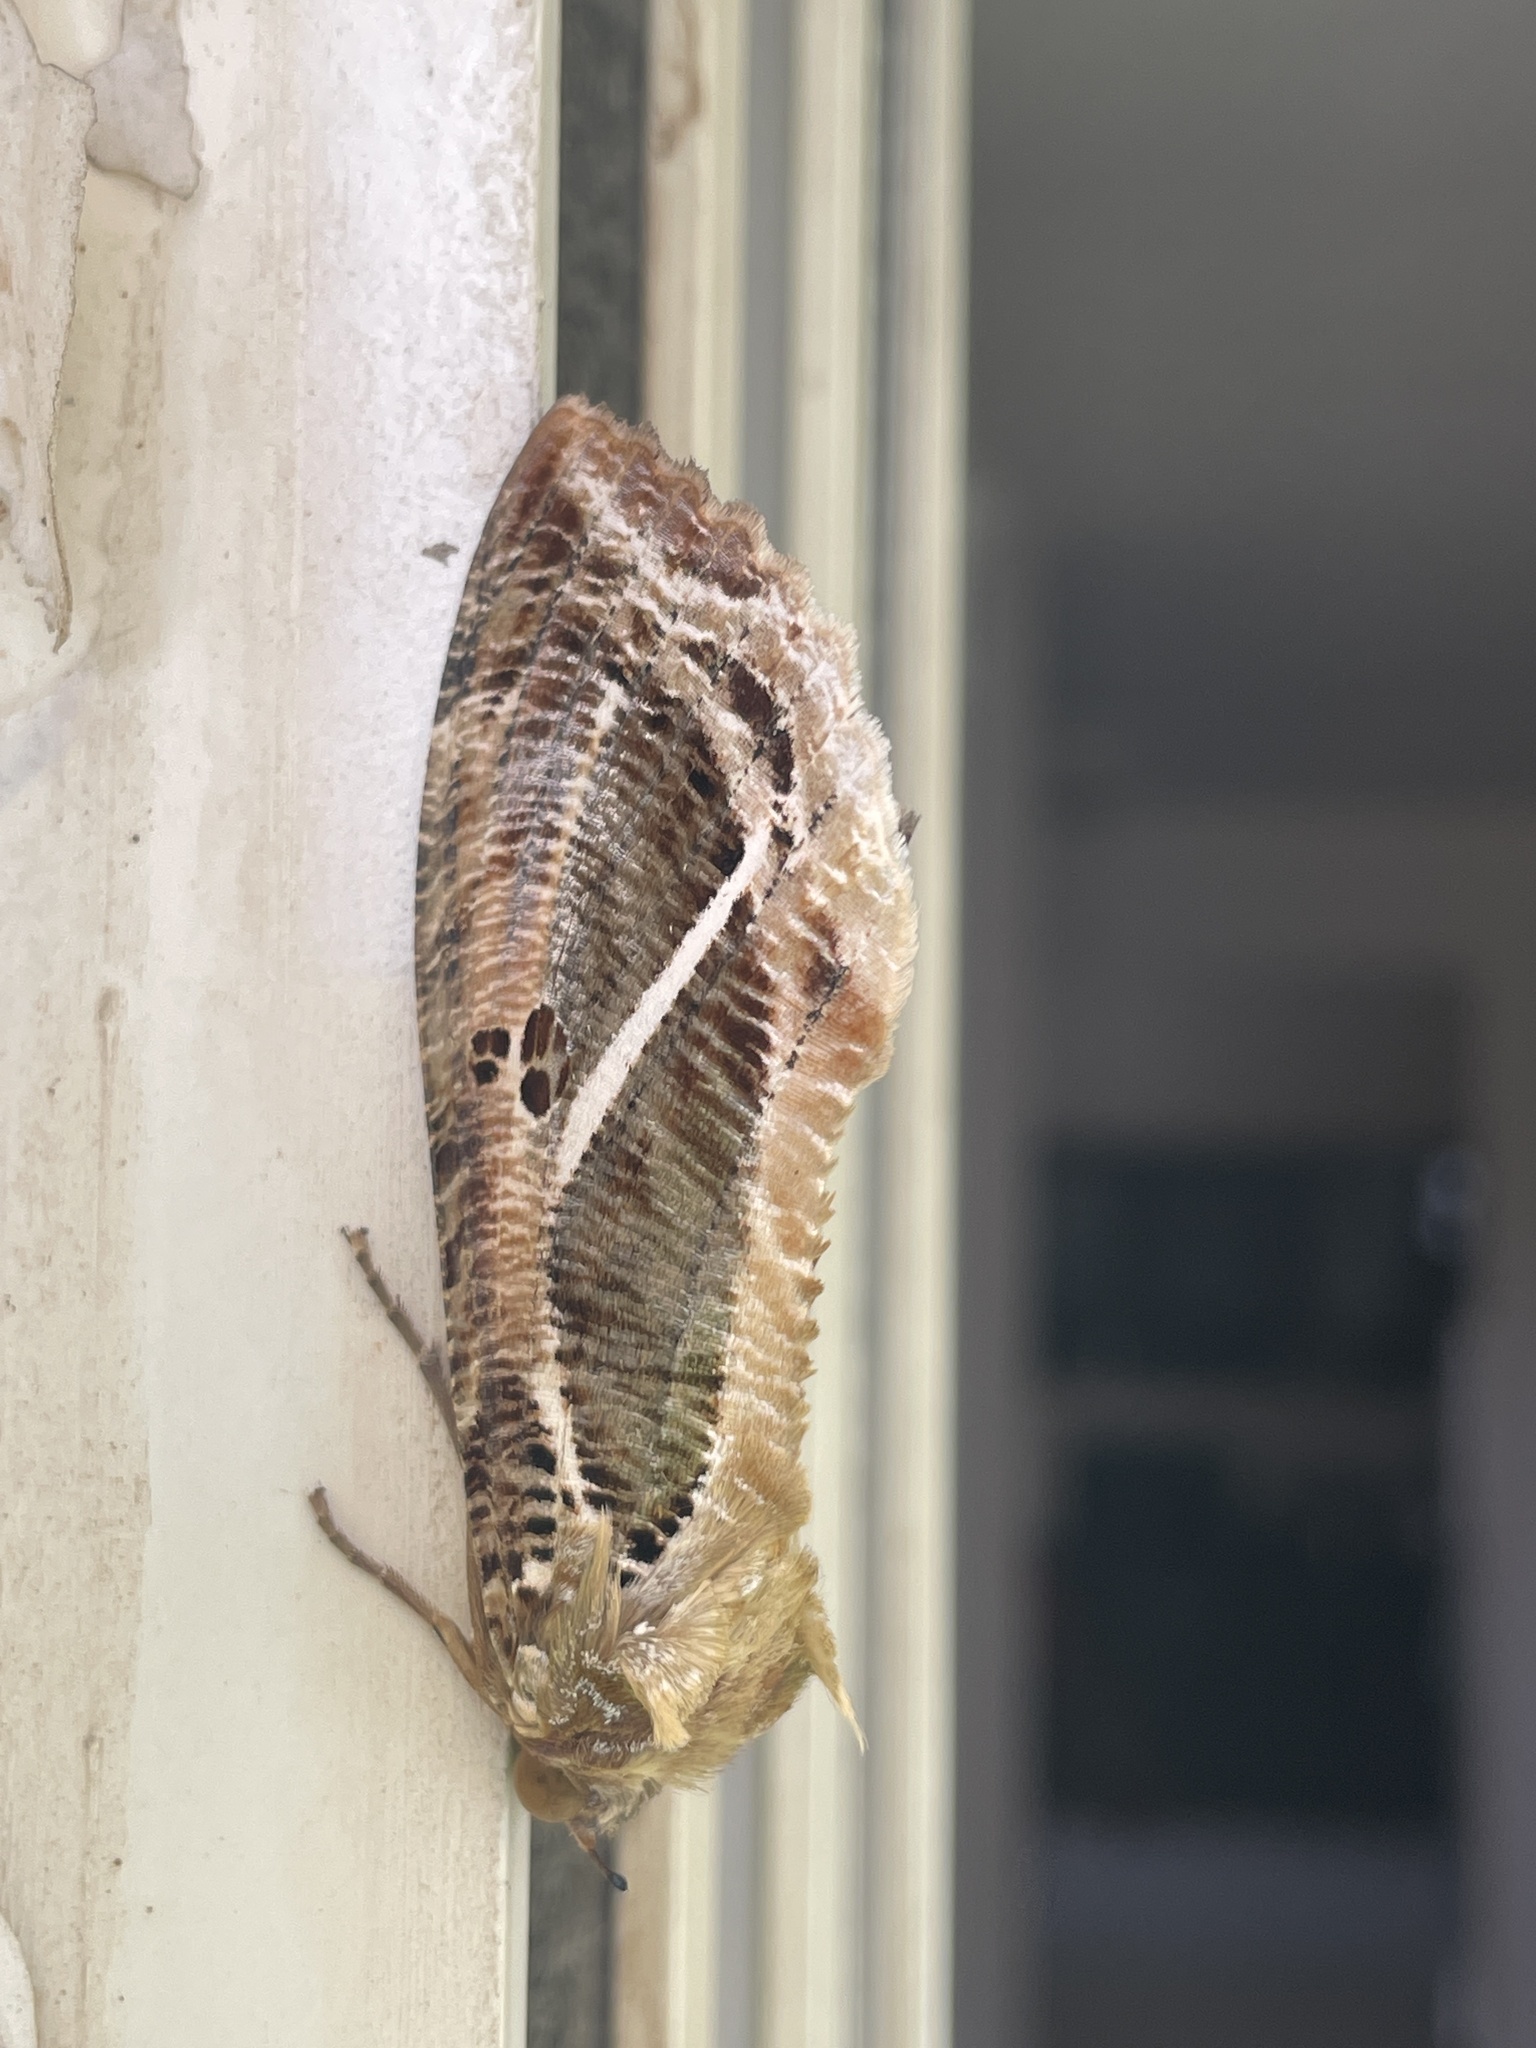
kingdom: Animalia
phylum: Arthropoda
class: Insecta
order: Lepidoptera
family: Erebidae
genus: Eudocima
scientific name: Eudocima materna
